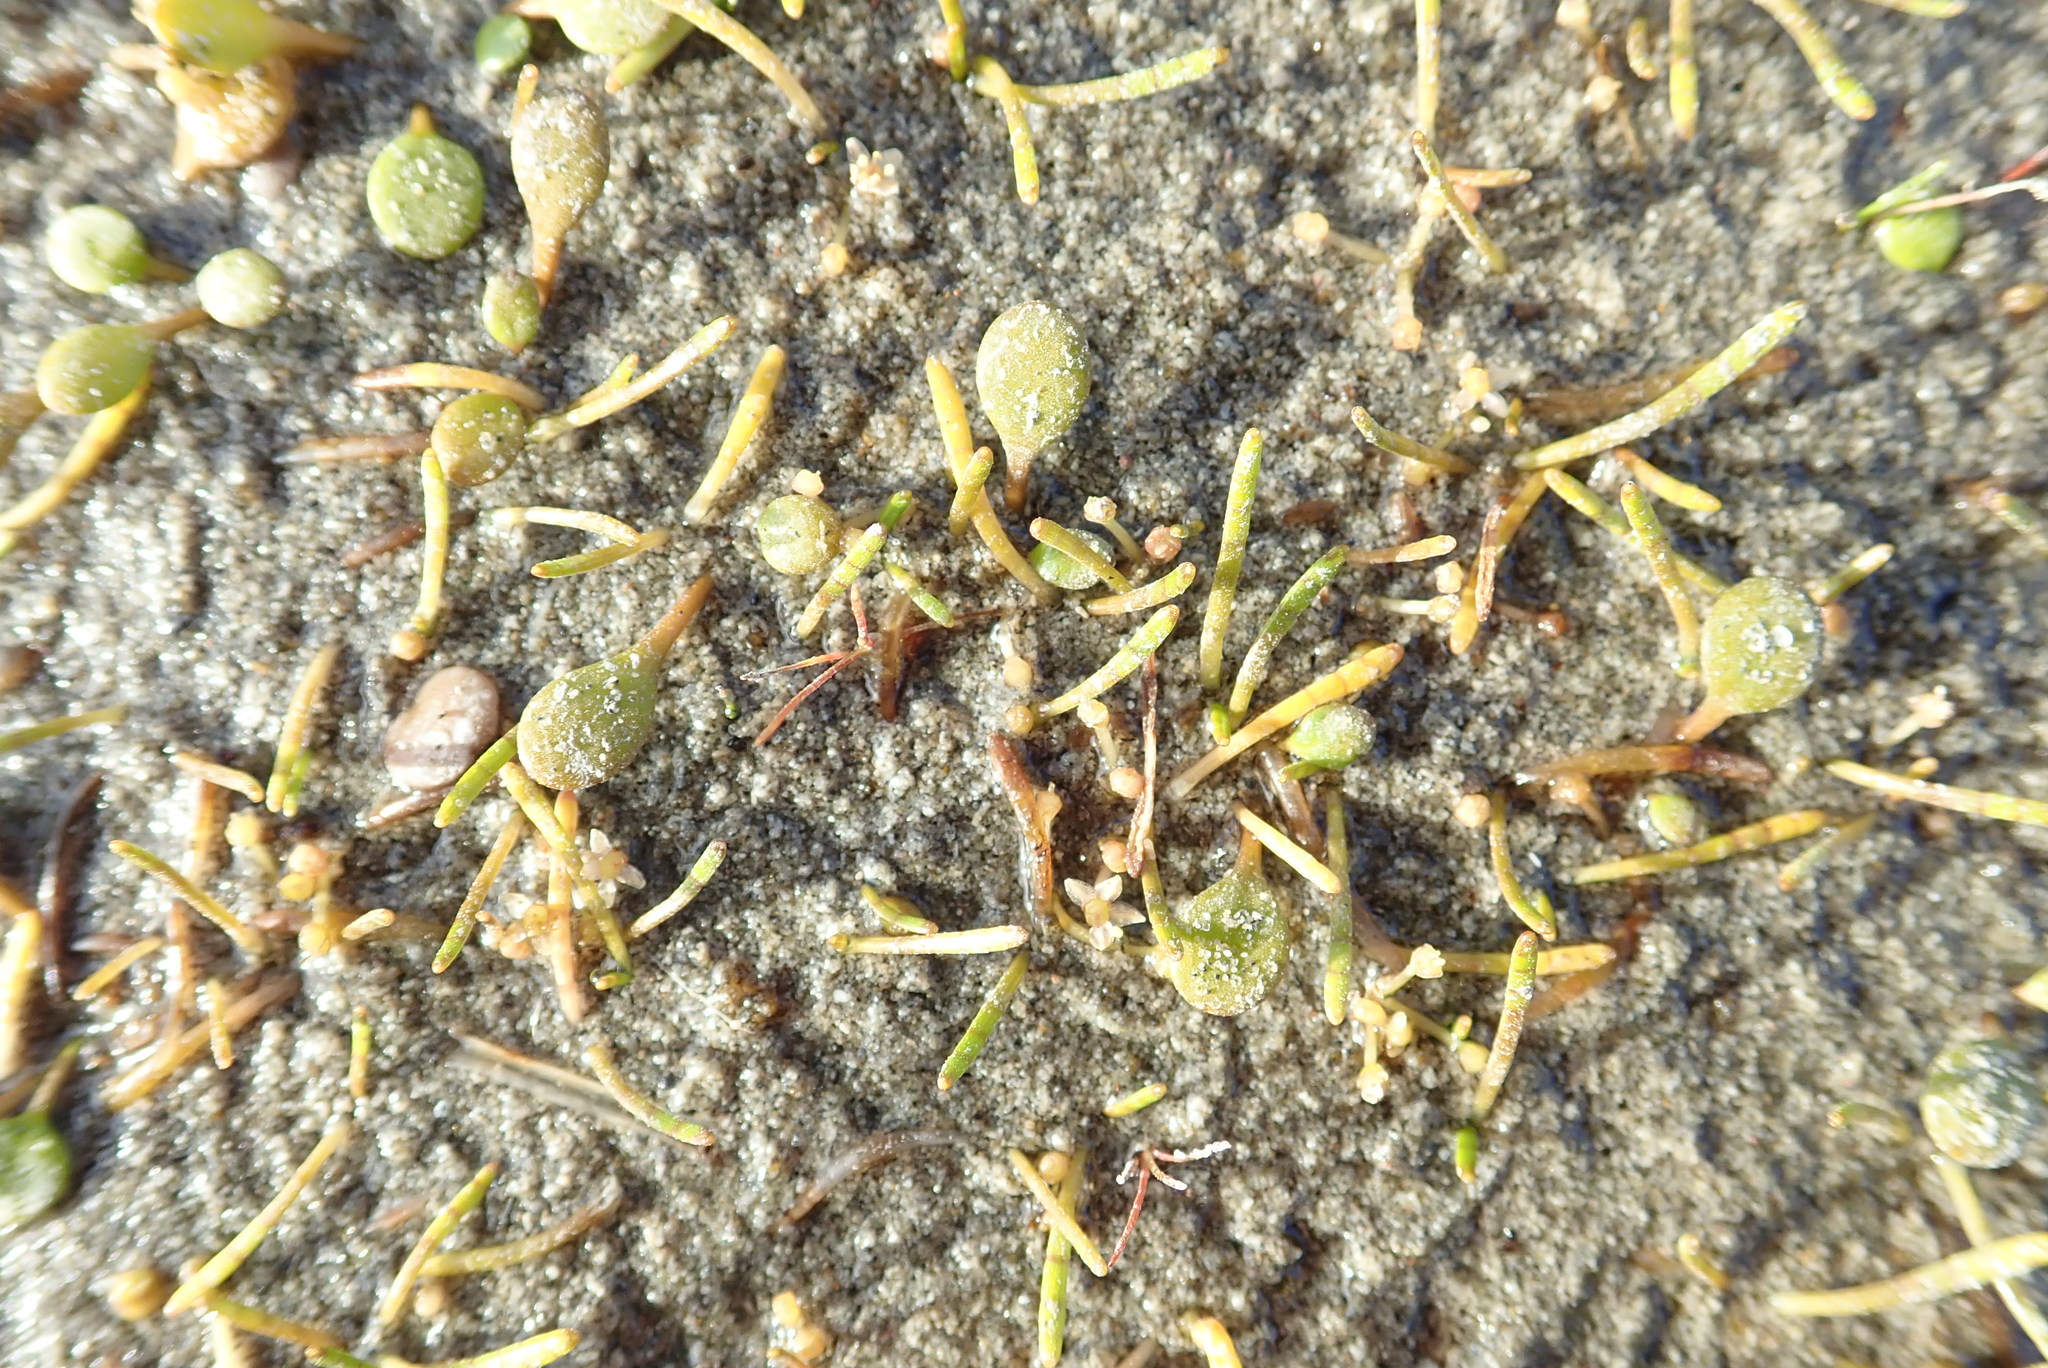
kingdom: Plantae
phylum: Tracheophyta
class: Magnoliopsida
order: Apiales
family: Apiaceae
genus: Lilaeopsis
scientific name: Lilaeopsis novae-zelandiae
